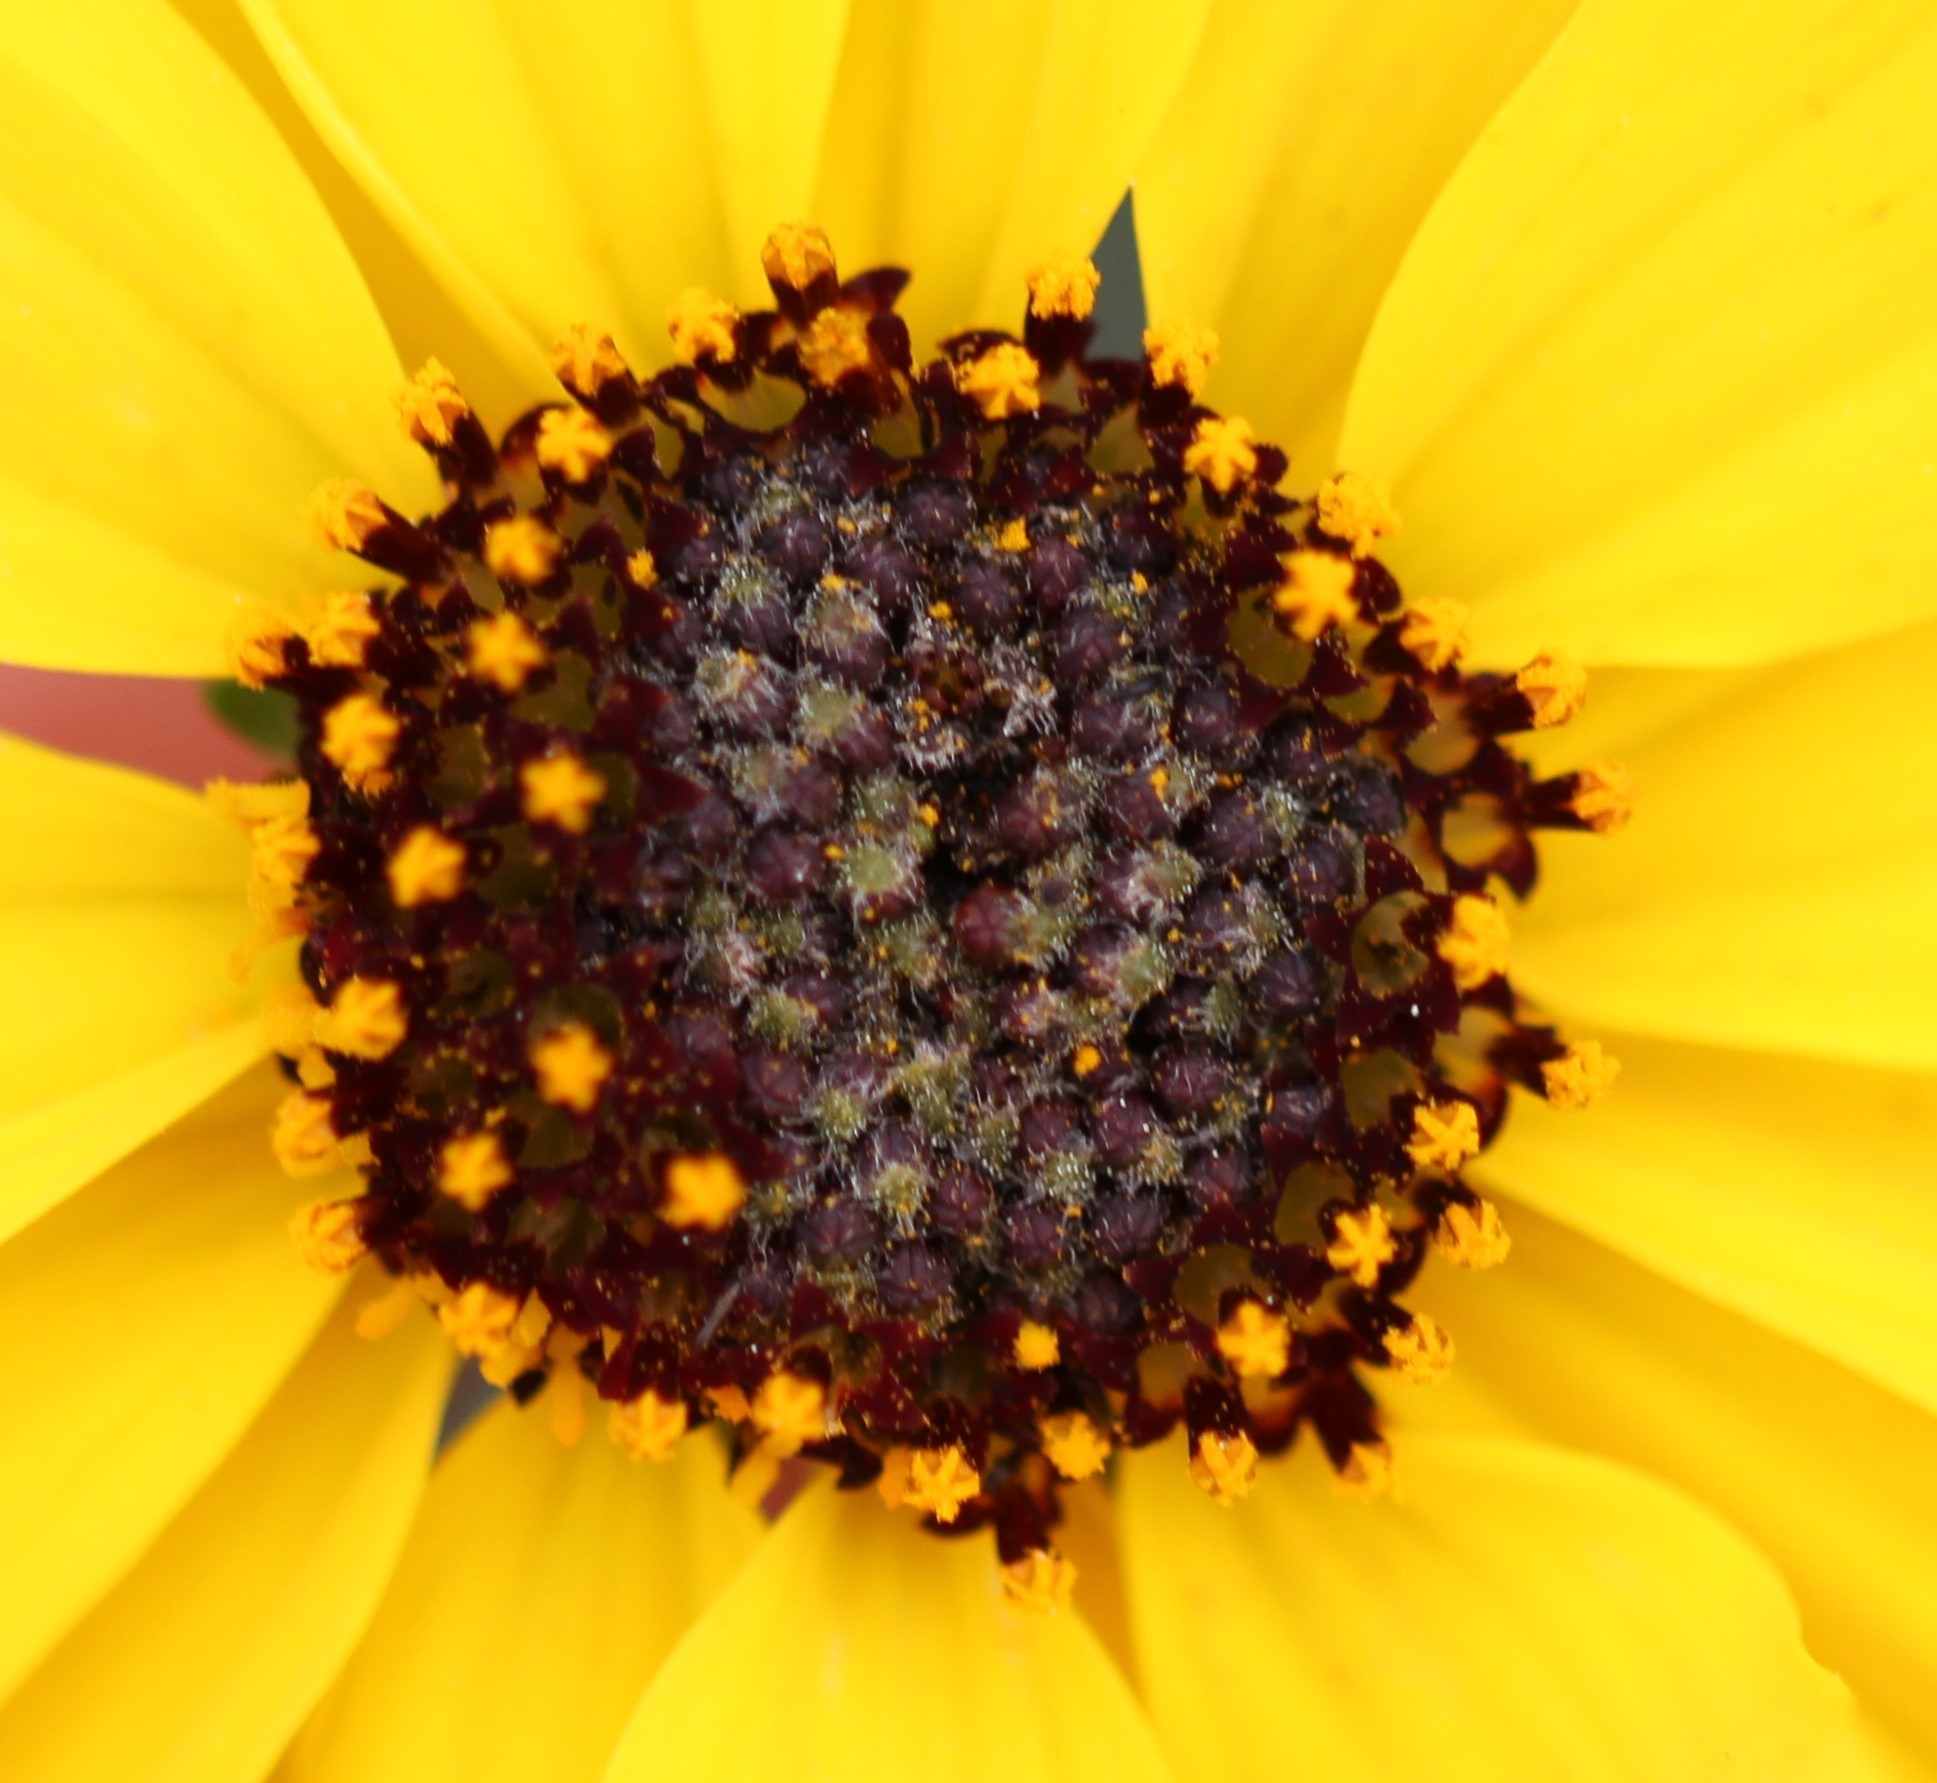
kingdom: Plantae
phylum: Tracheophyta
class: Magnoliopsida
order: Asterales
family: Asteraceae
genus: Encelia
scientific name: Encelia
